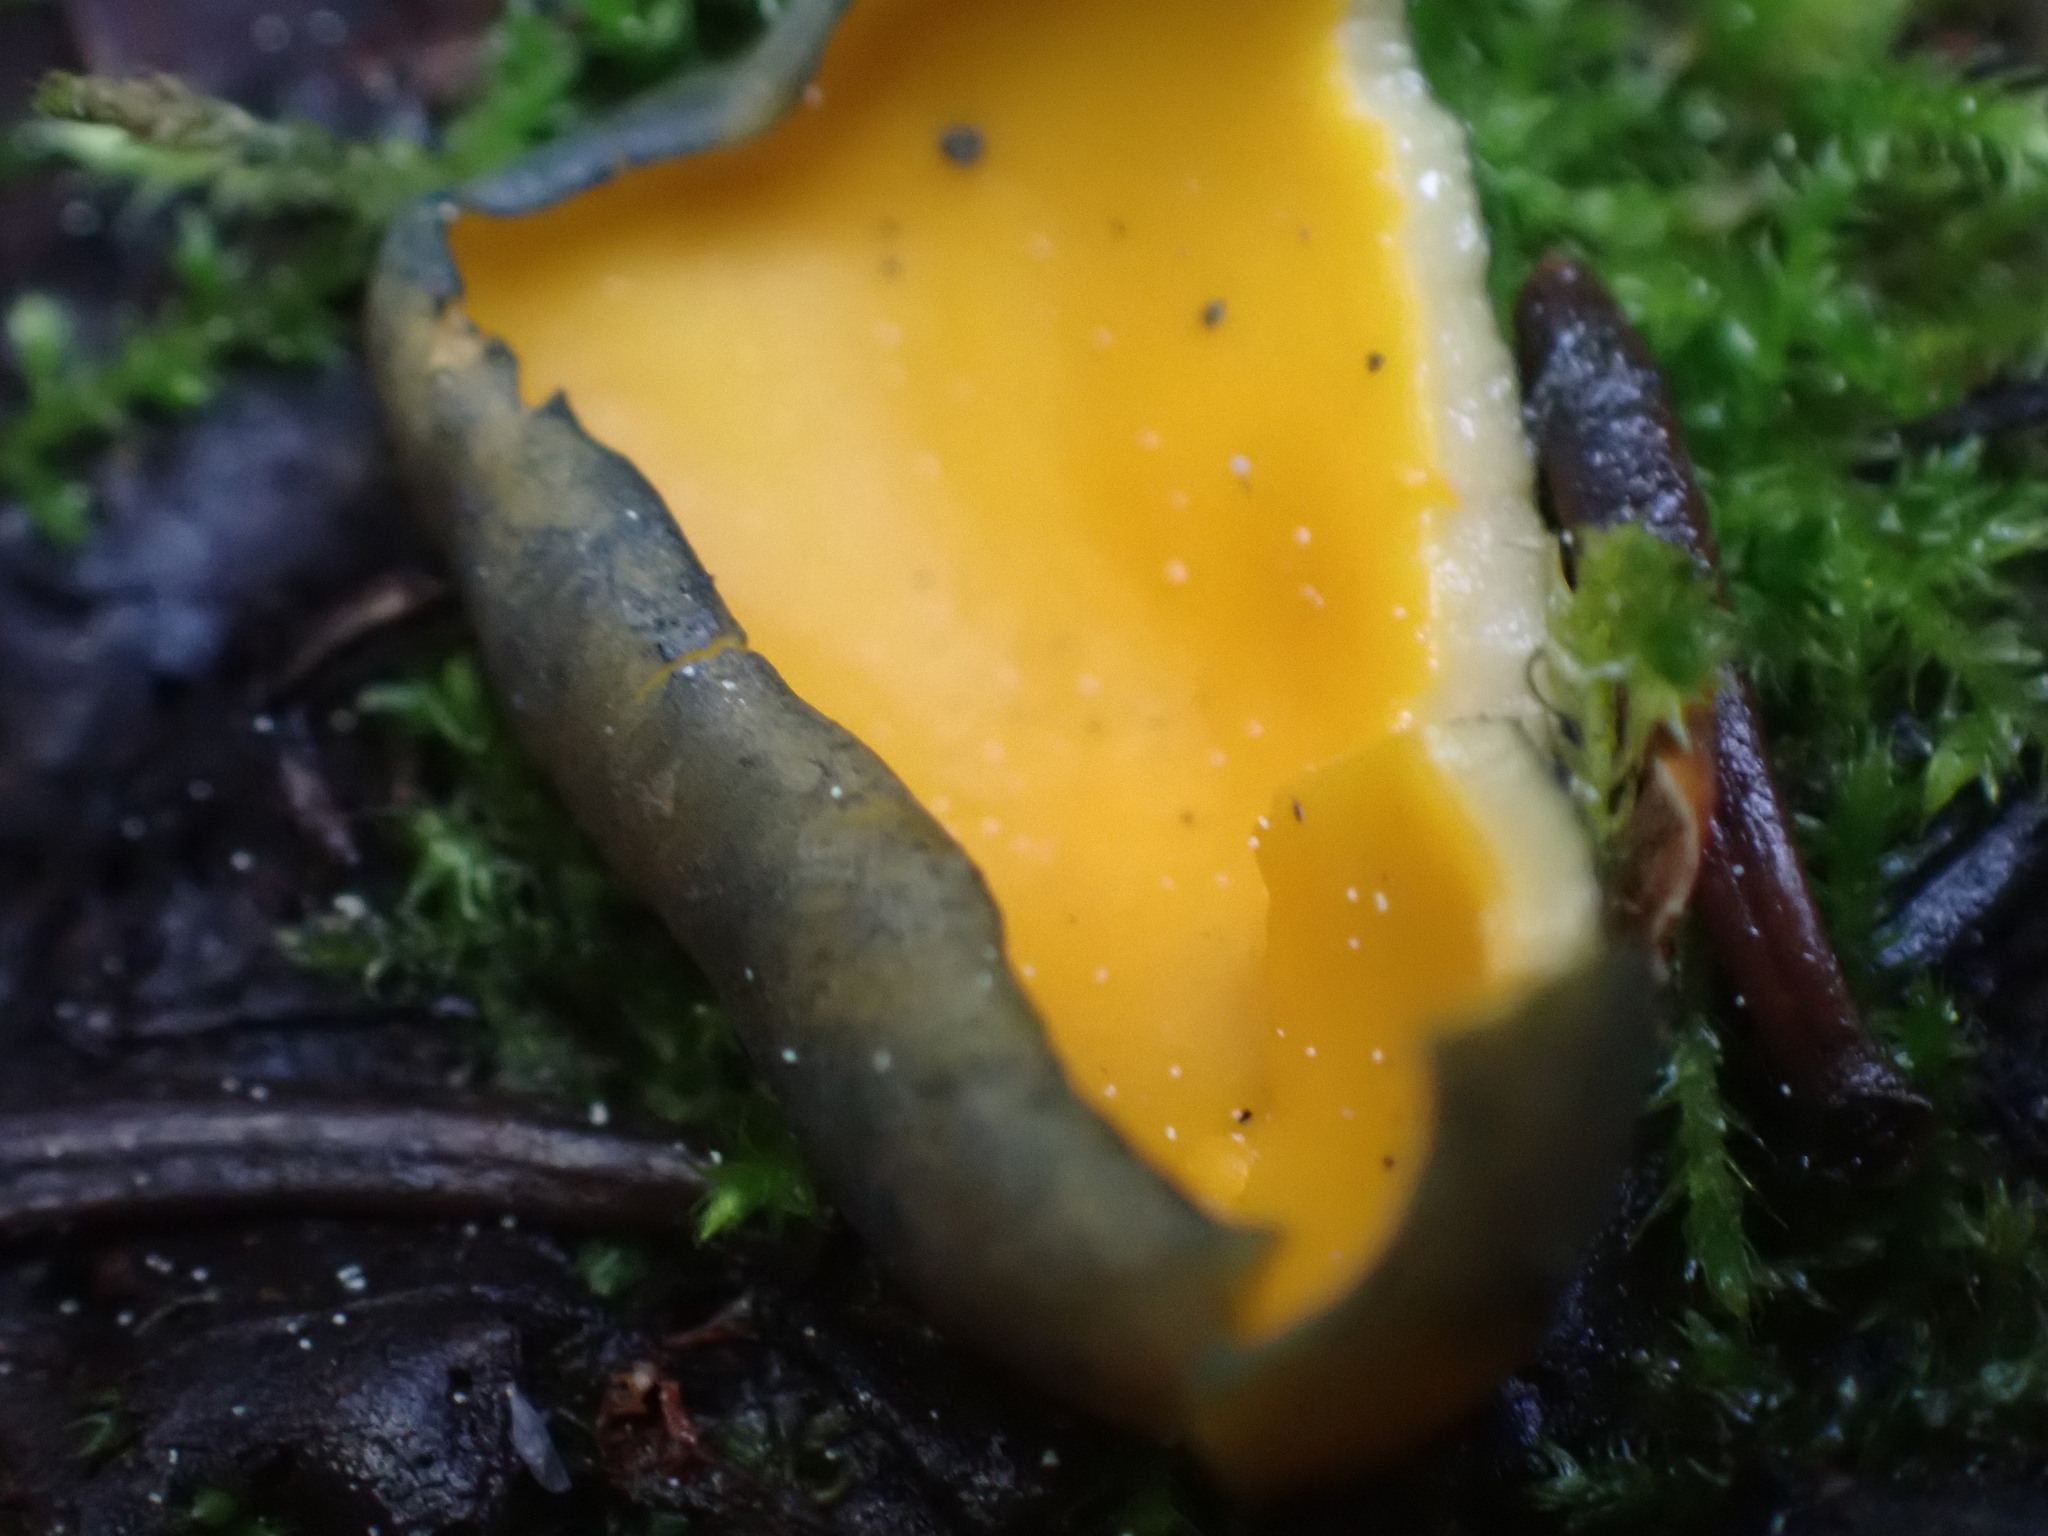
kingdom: Fungi
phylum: Ascomycota
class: Pezizomycetes
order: Pezizales
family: Caloscyphaceae
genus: Caloscypha
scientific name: Caloscypha fulgens
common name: Golden cup
